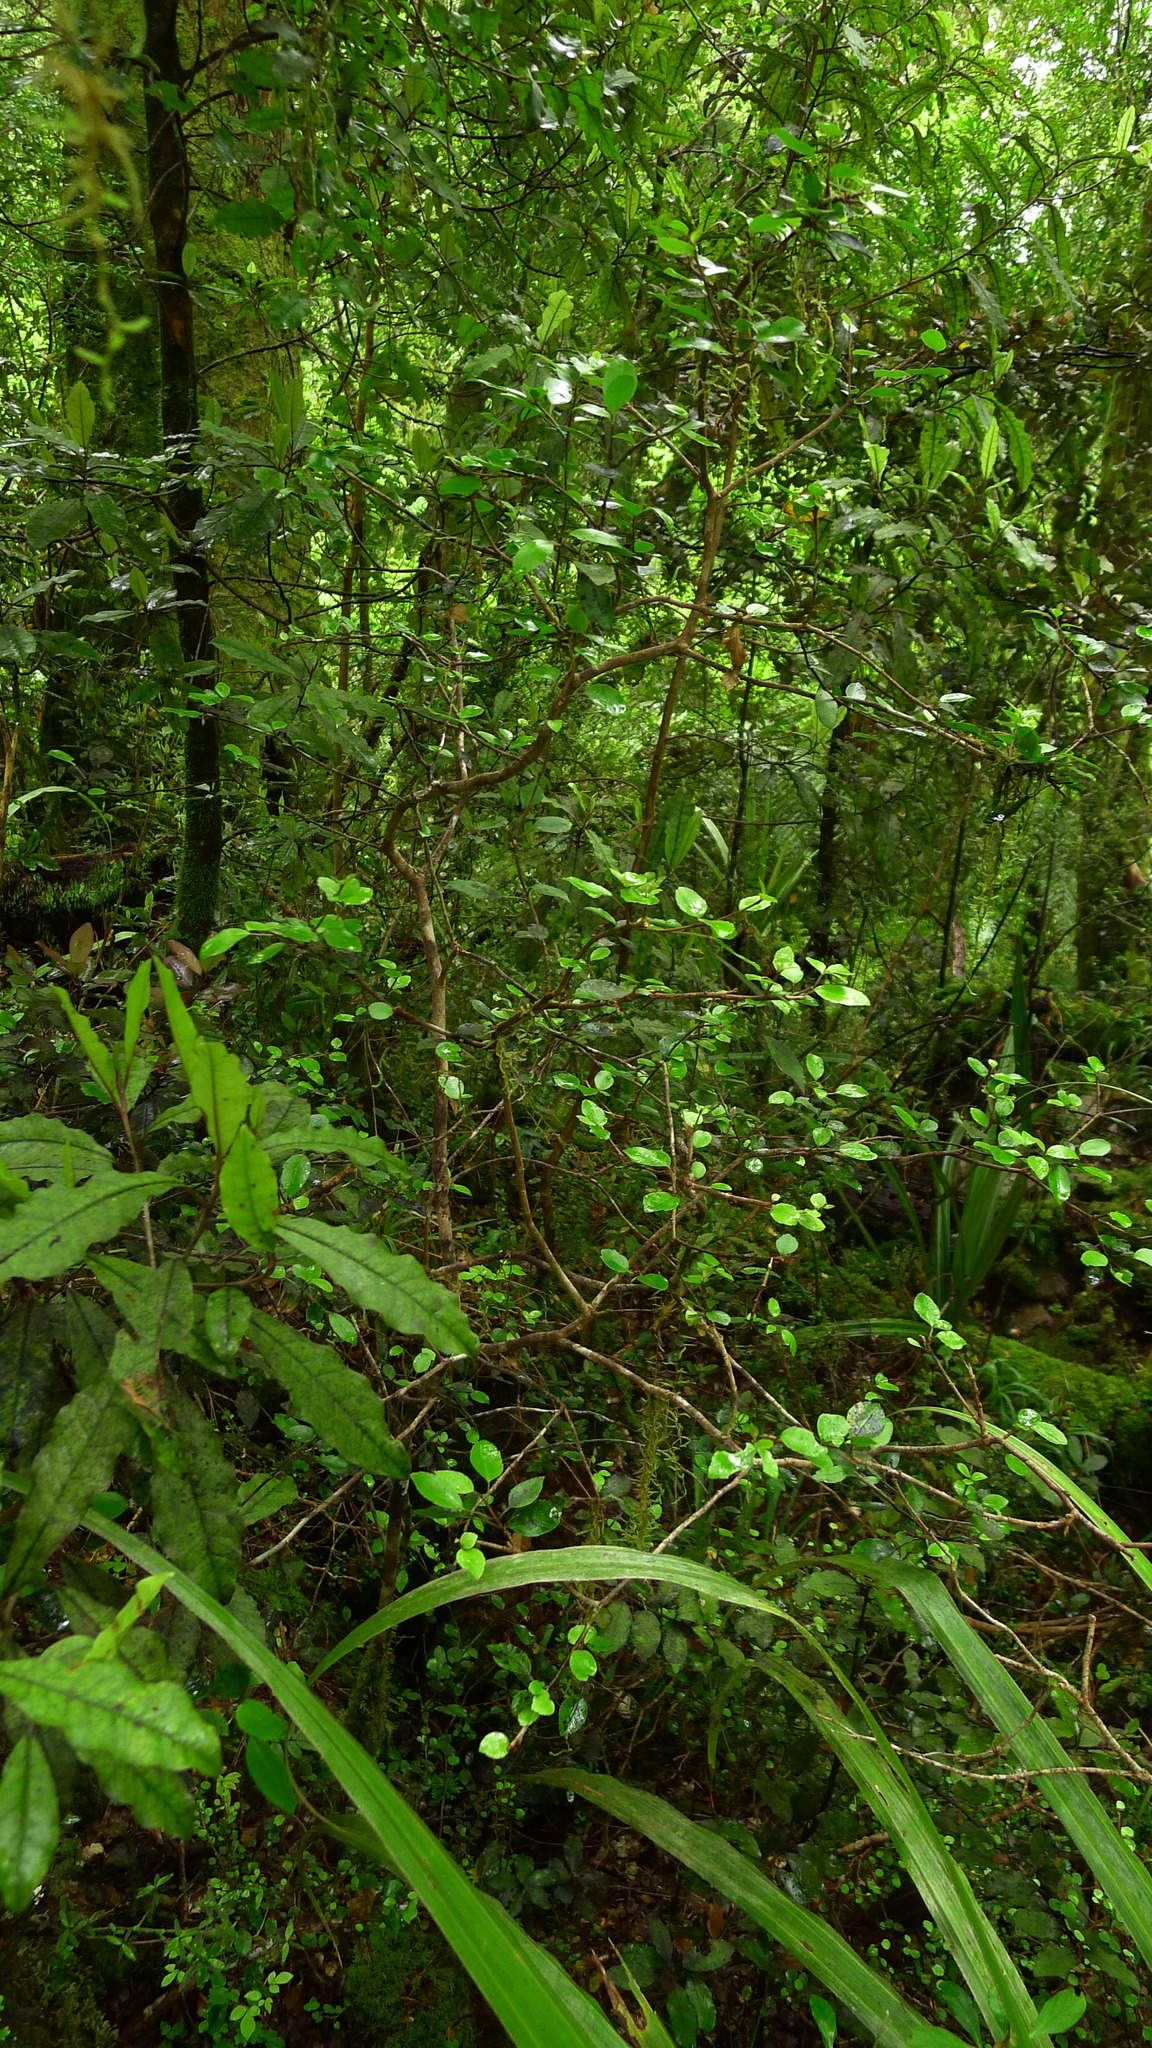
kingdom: Plantae
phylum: Tracheophyta
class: Magnoliopsida
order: Apiales
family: Araliaceae
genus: Raukaua
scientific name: Raukaua parvus
